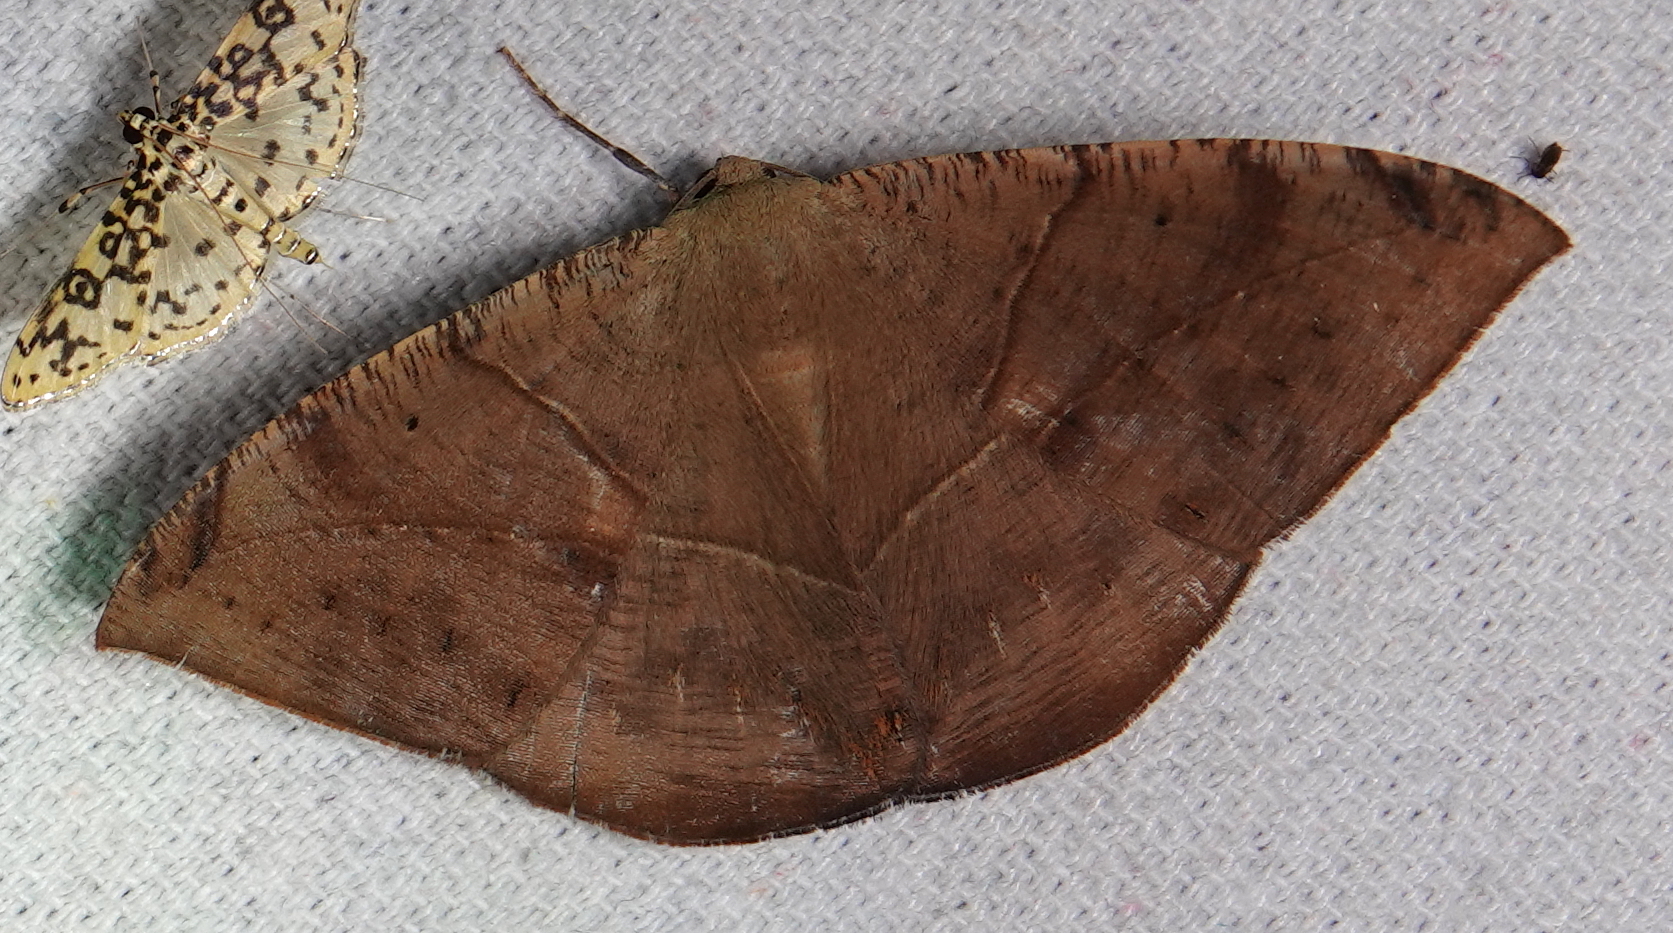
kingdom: Animalia
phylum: Arthropoda
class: Insecta
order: Lepidoptera
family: Geometridae
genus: Oxydia
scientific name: Oxydia trychiata
